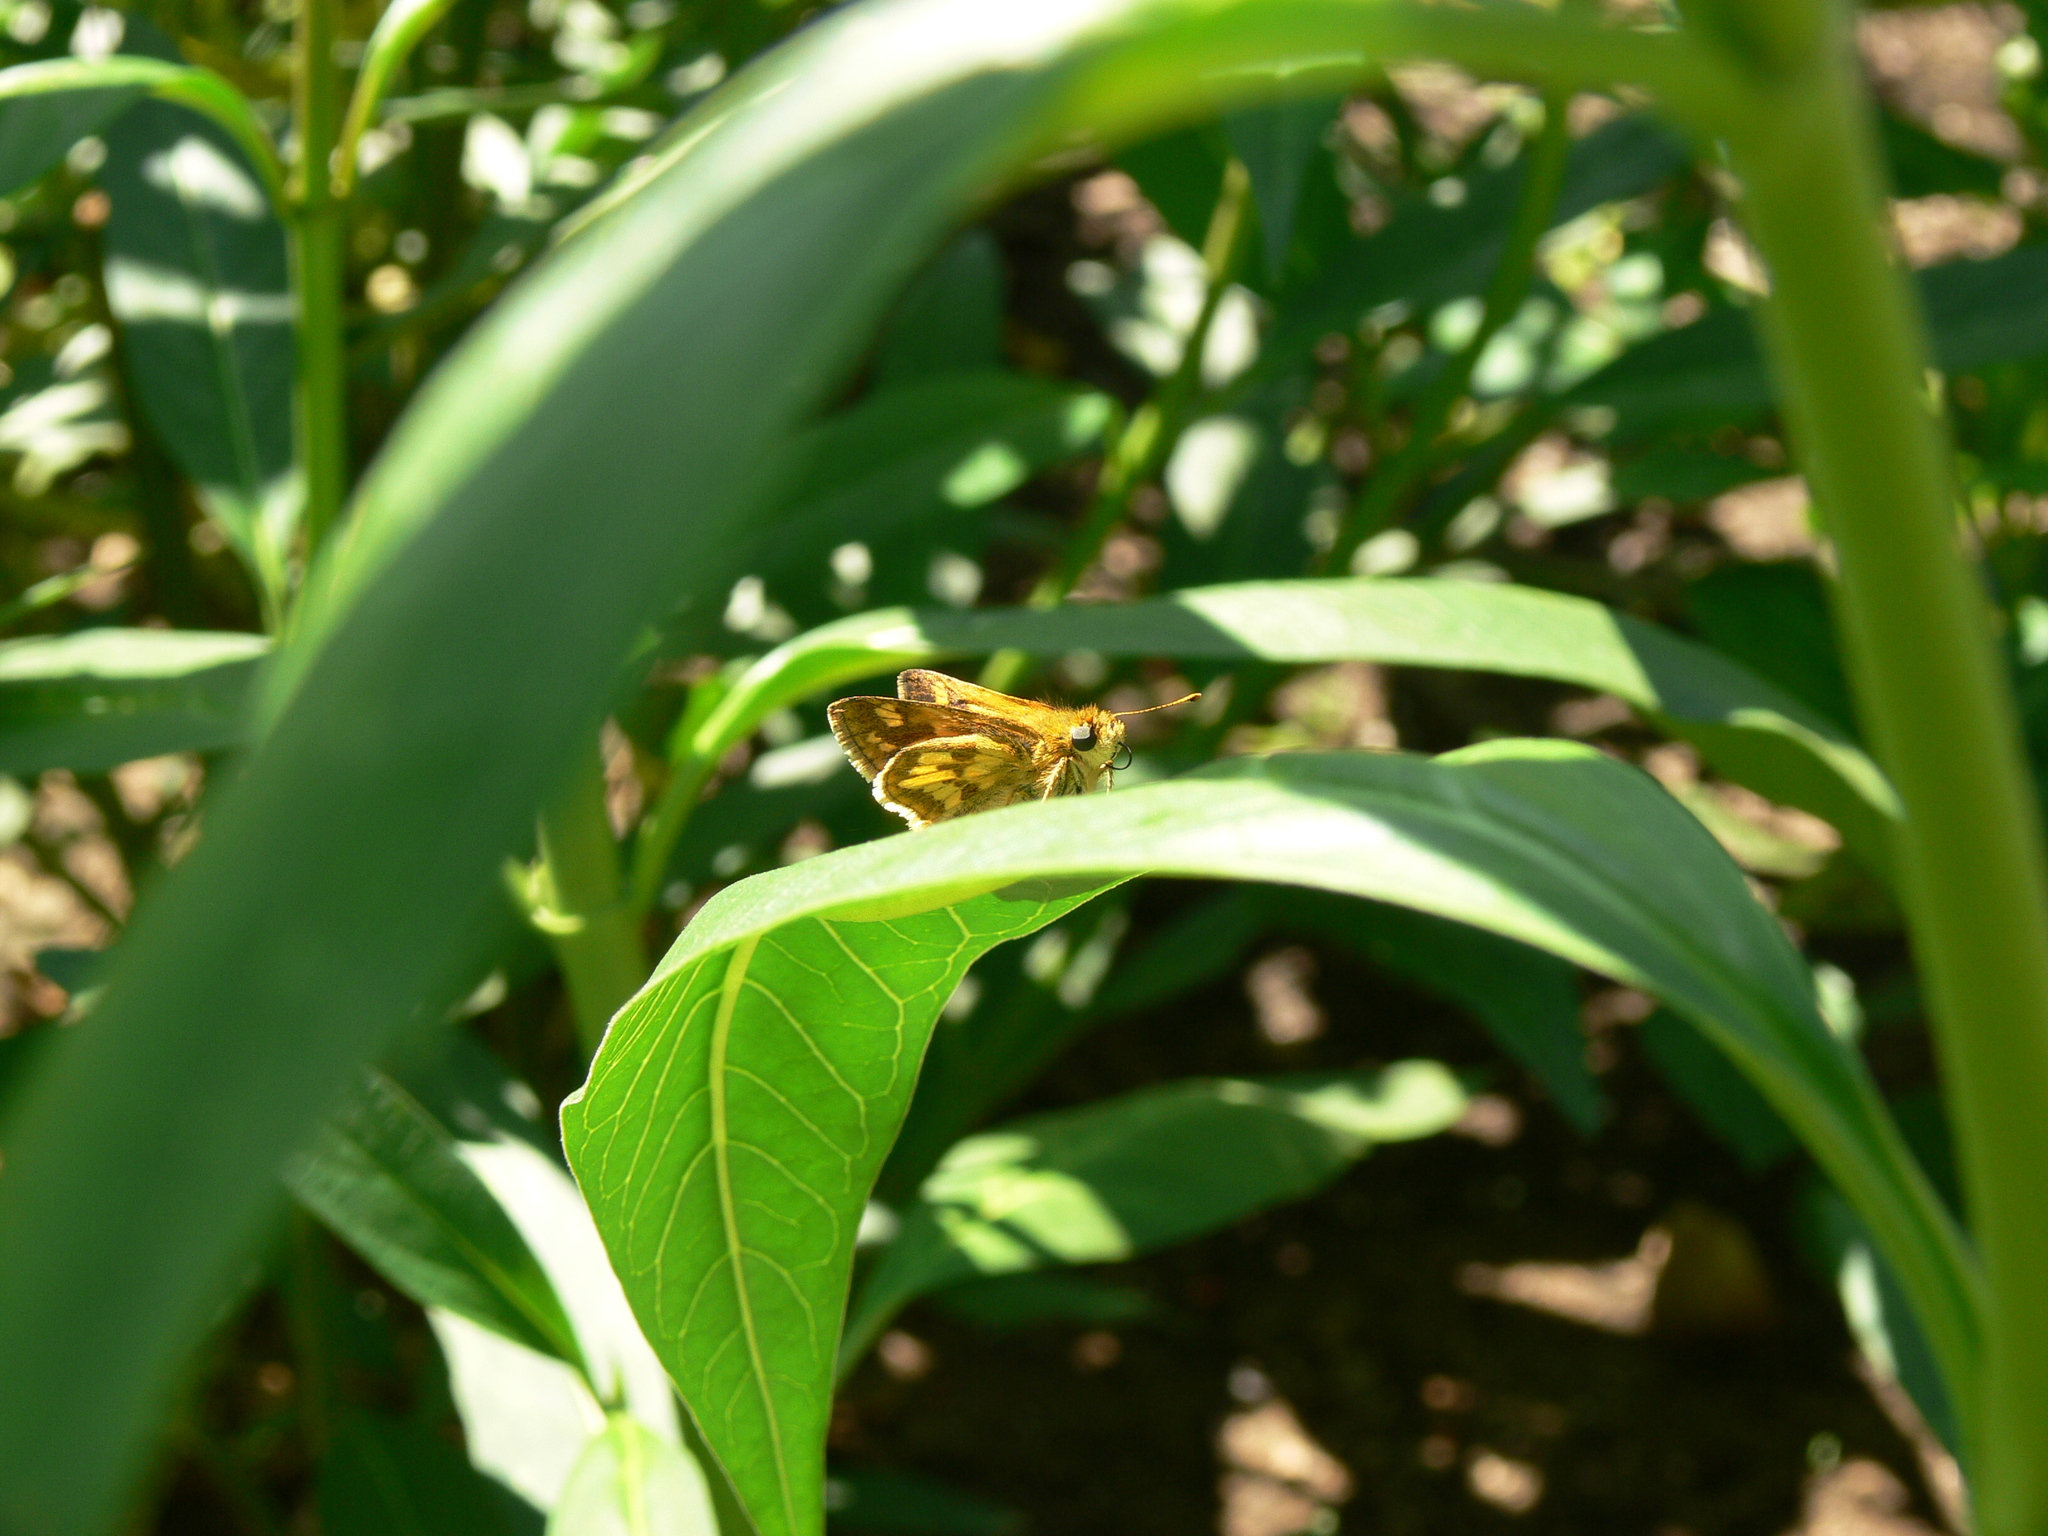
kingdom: Animalia
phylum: Arthropoda
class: Insecta
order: Lepidoptera
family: Hesperiidae
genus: Polites
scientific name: Polites coras
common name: Peck's skipper
